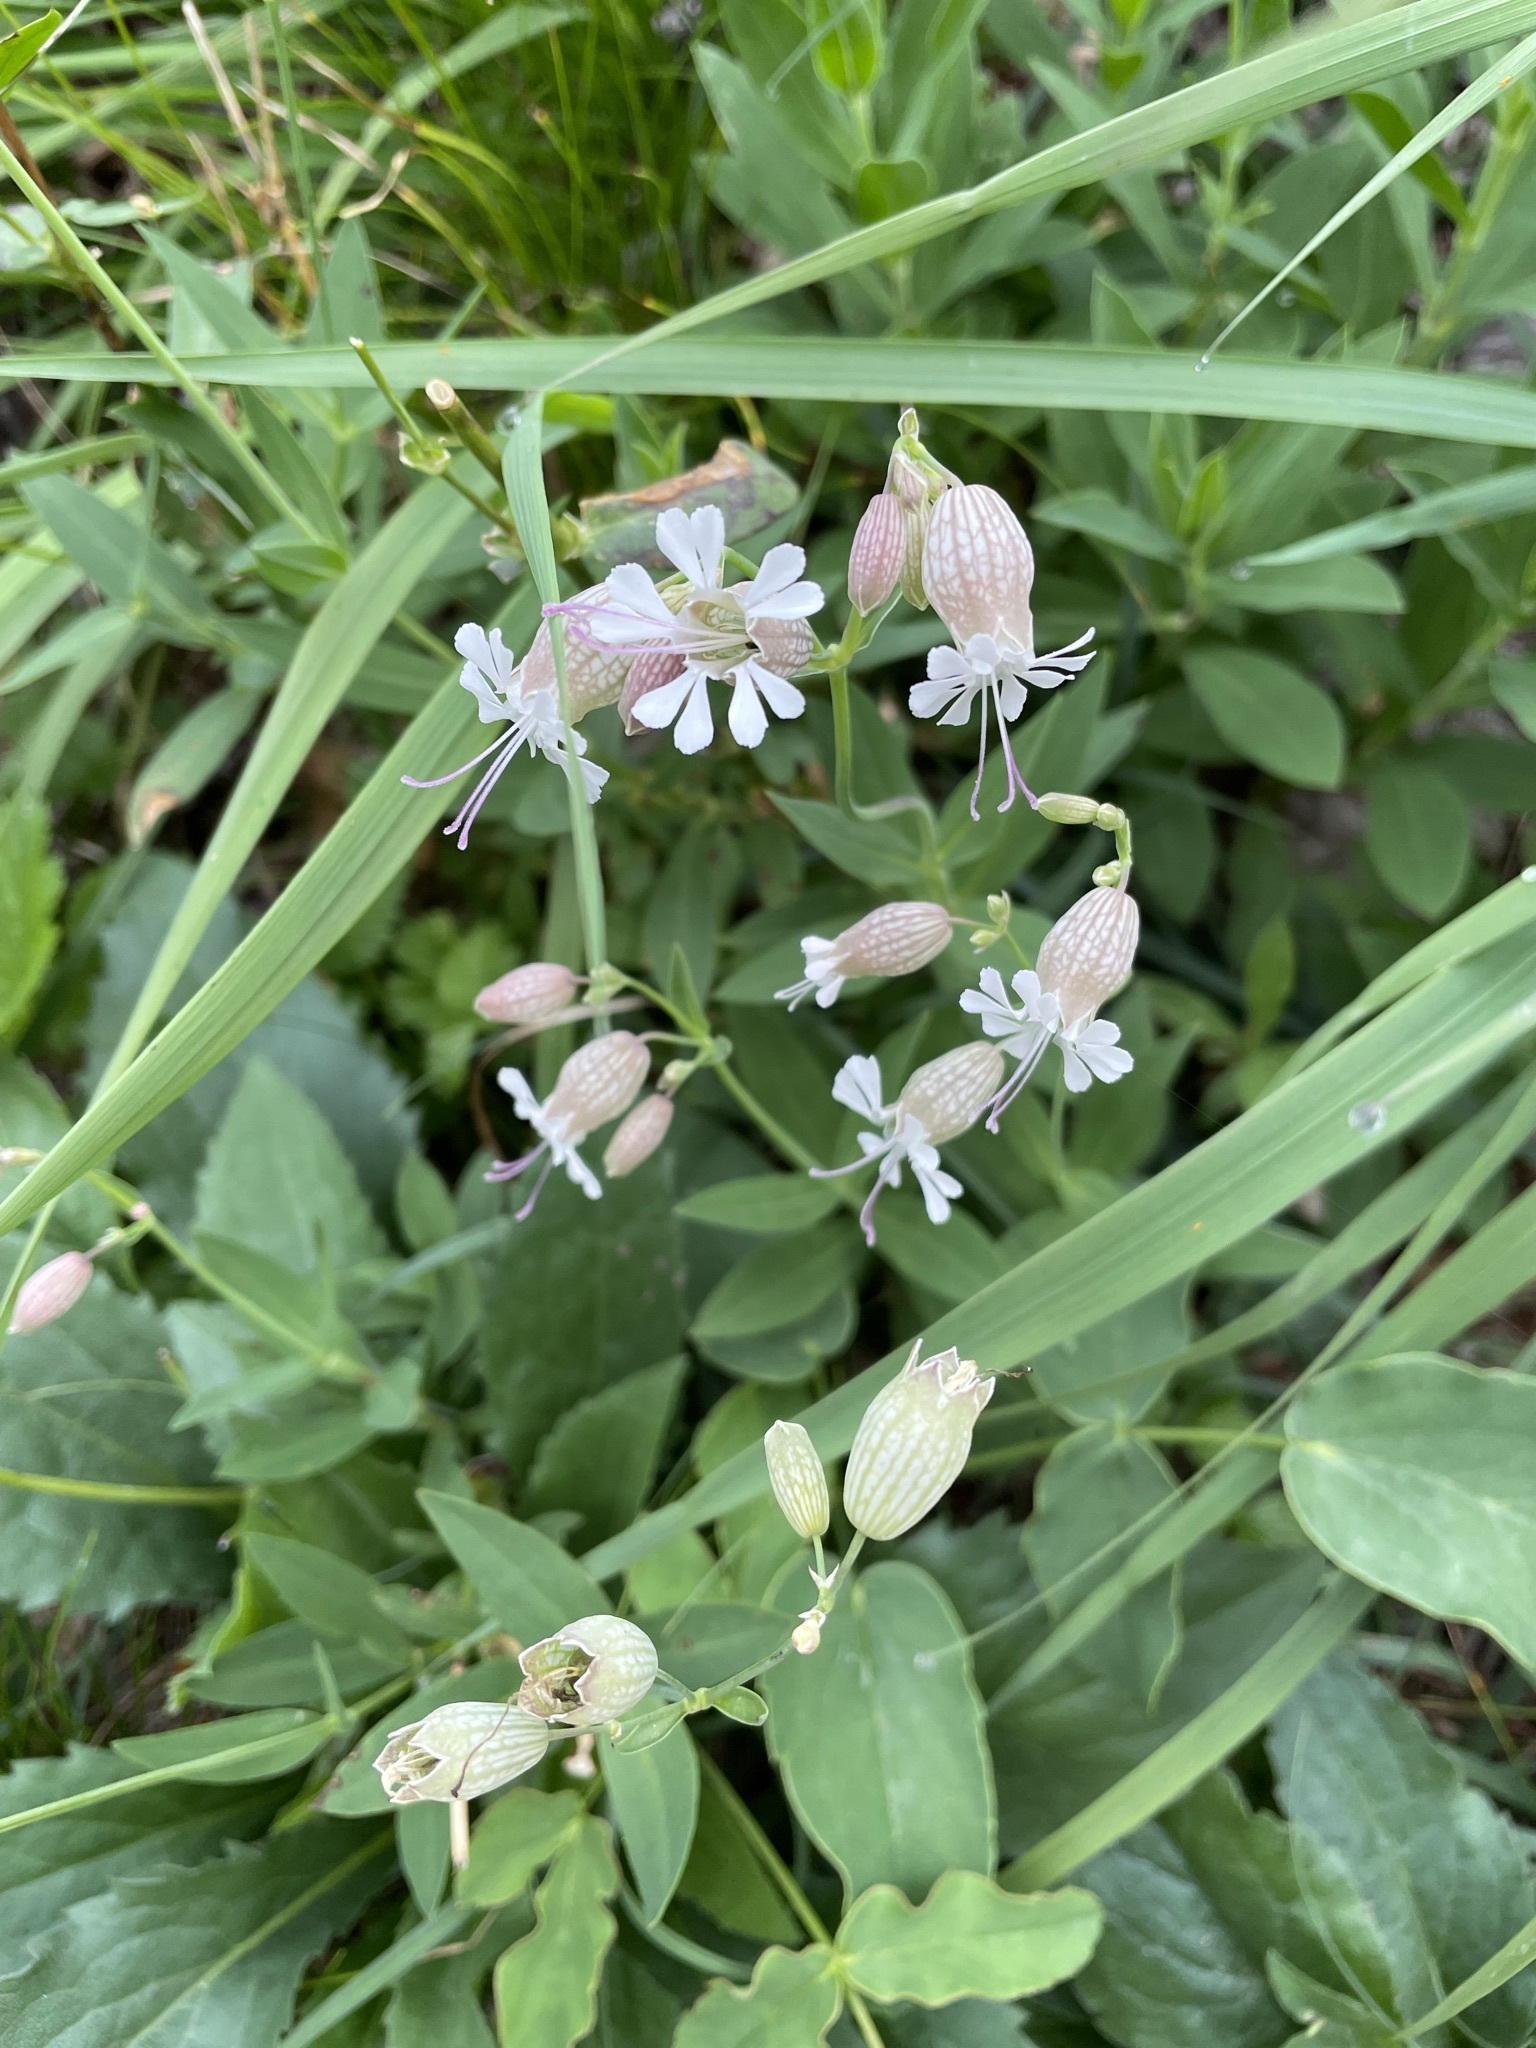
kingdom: Plantae
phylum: Tracheophyta
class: Magnoliopsida
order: Caryophyllales
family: Caryophyllaceae
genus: Silene
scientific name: Silene vulgaris
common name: Bladder campion
